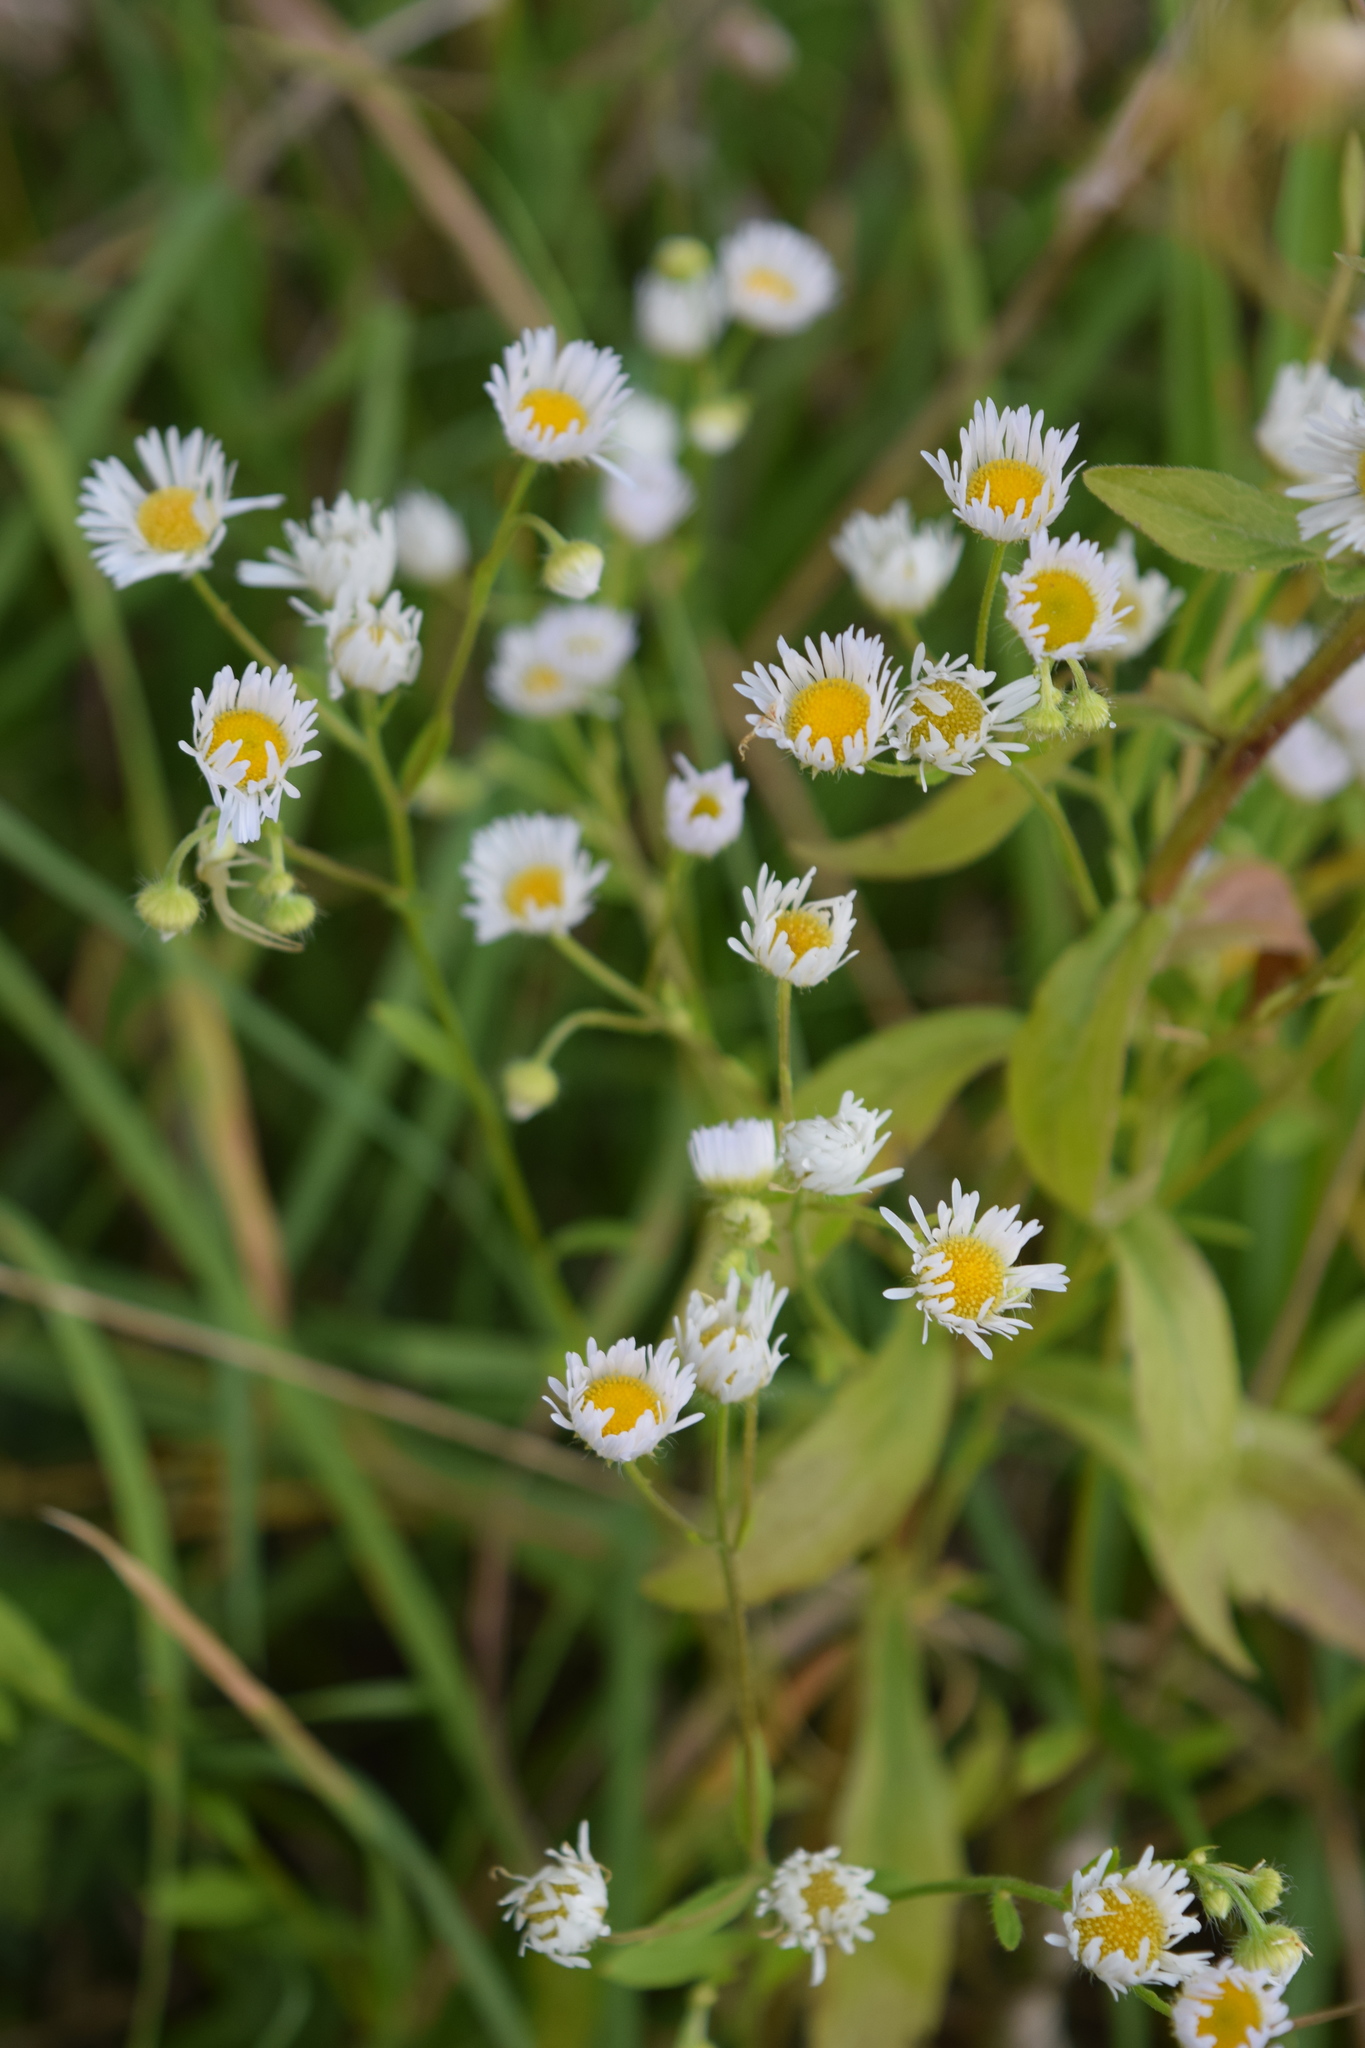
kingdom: Plantae
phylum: Tracheophyta
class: Magnoliopsida
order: Asterales
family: Asteraceae
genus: Erigeron
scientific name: Erigeron annuus
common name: Tall fleabane
